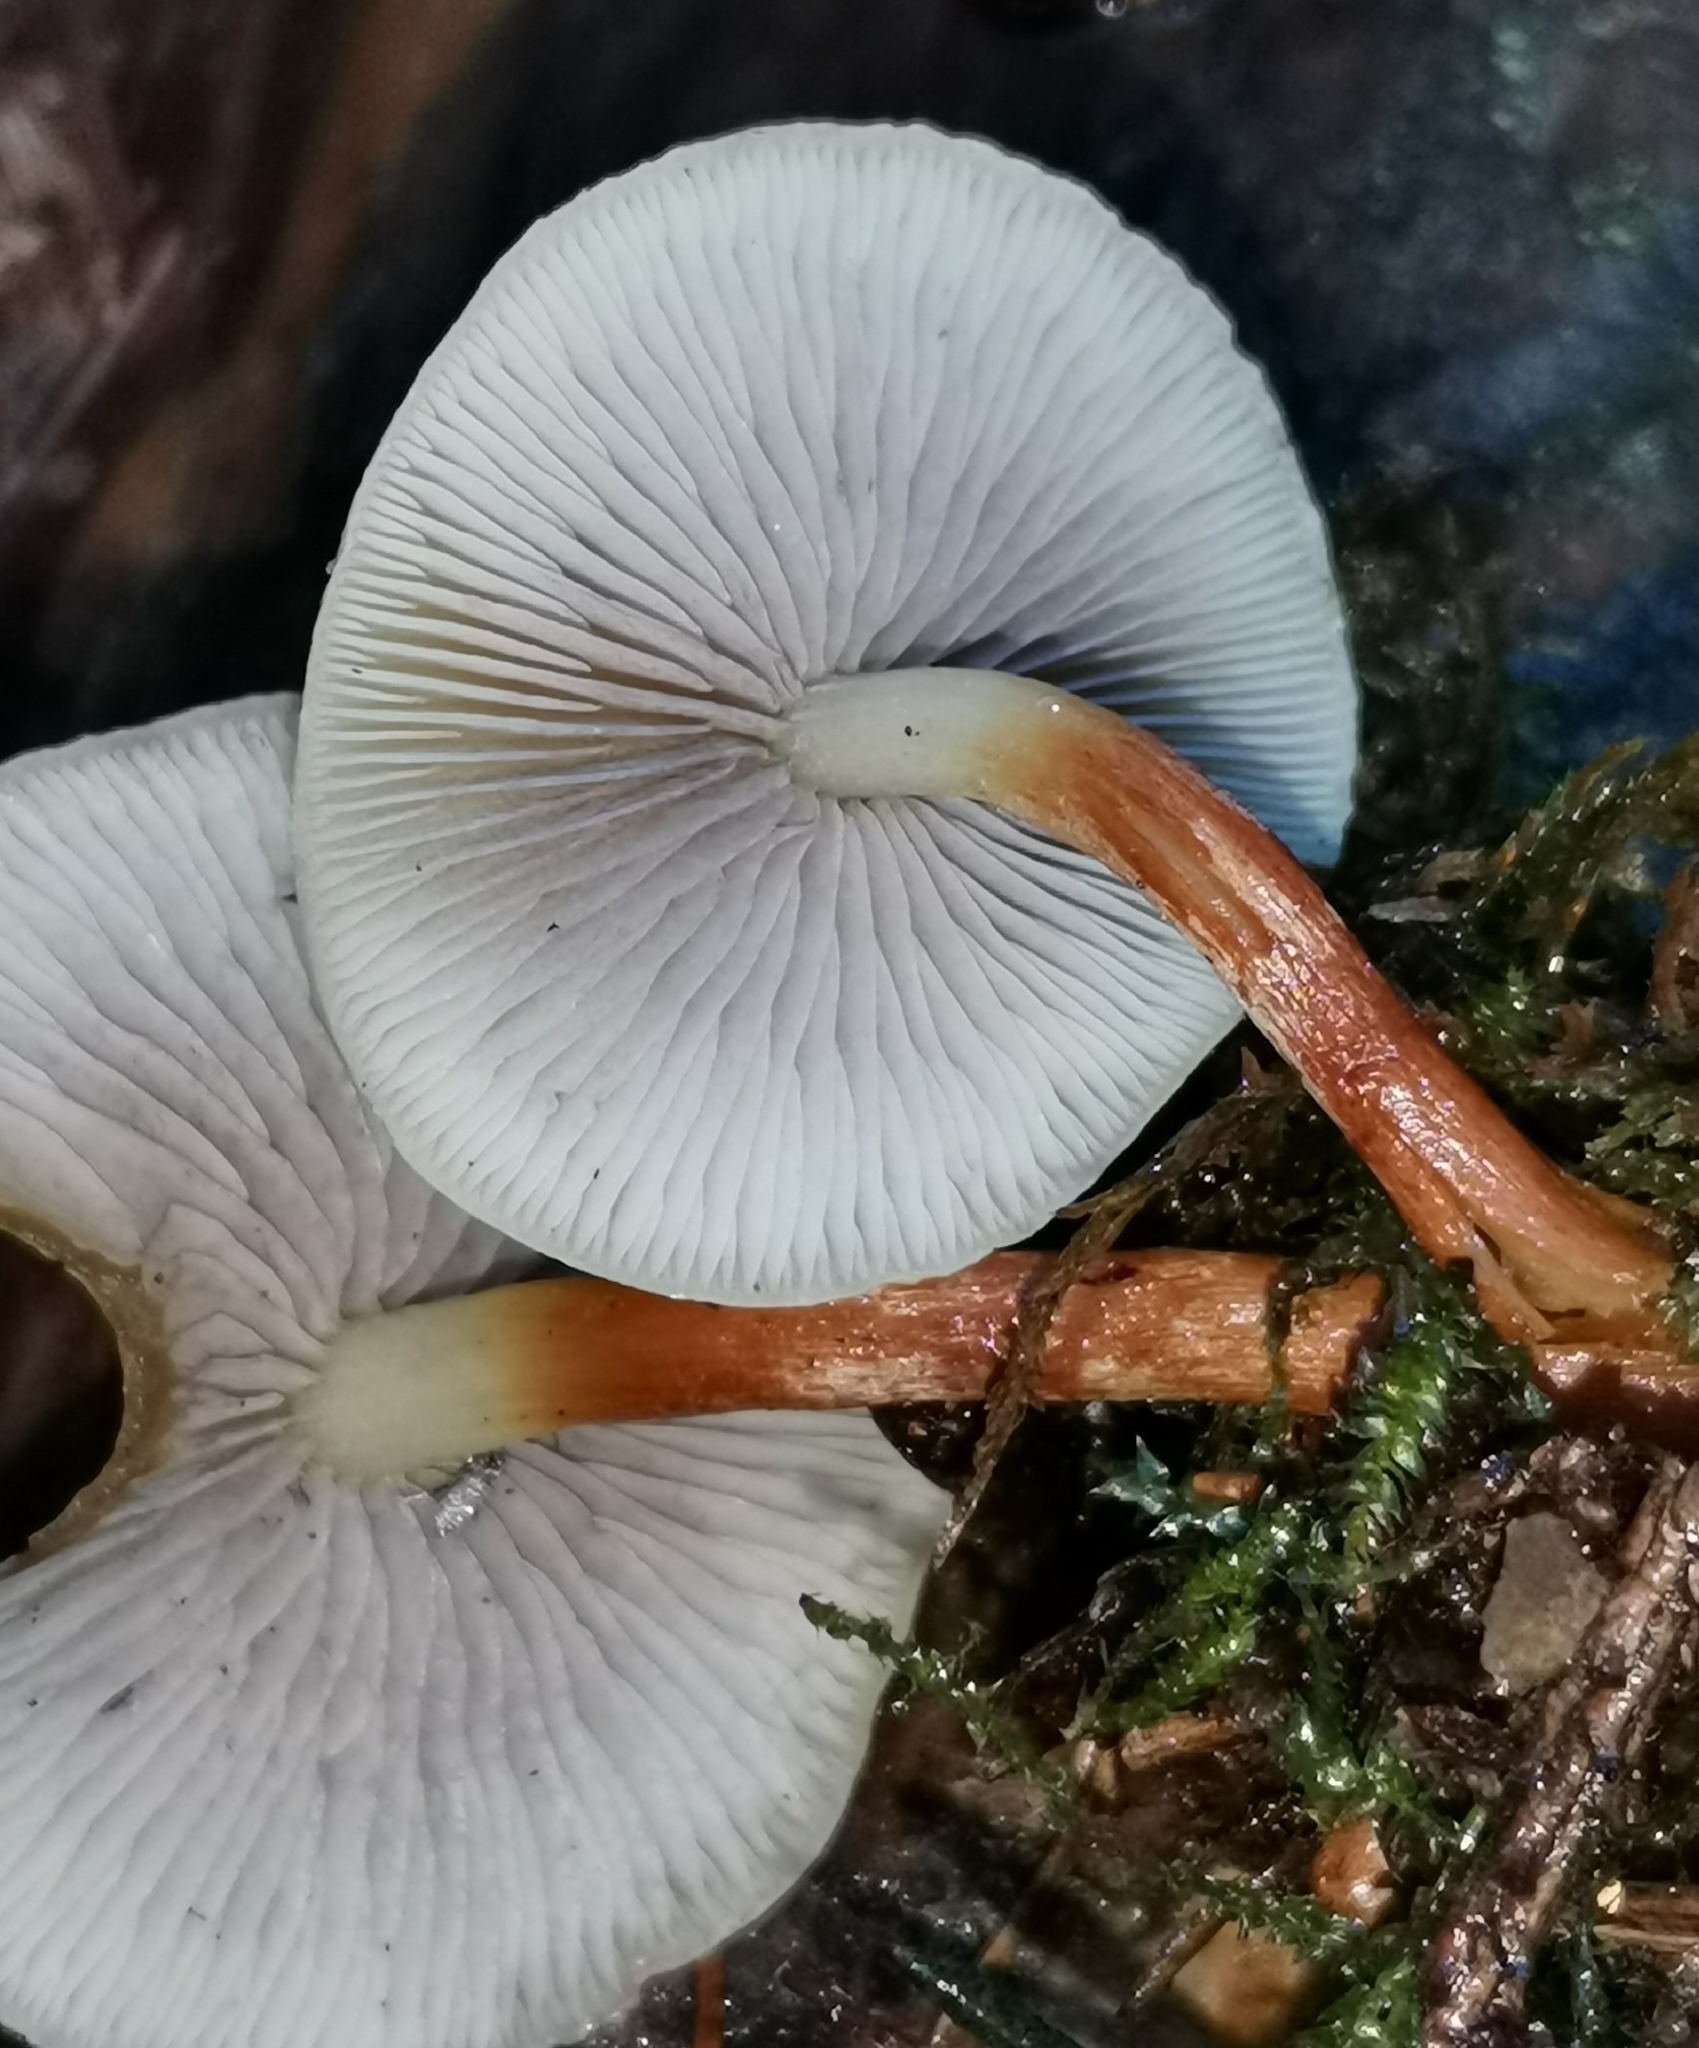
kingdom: Fungi
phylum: Basidiomycota
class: Agaricomycetes
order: Agaricales
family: Strophariaceae
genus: Hypholoma
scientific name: Hypholoma capnoides
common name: Conifer tuft
